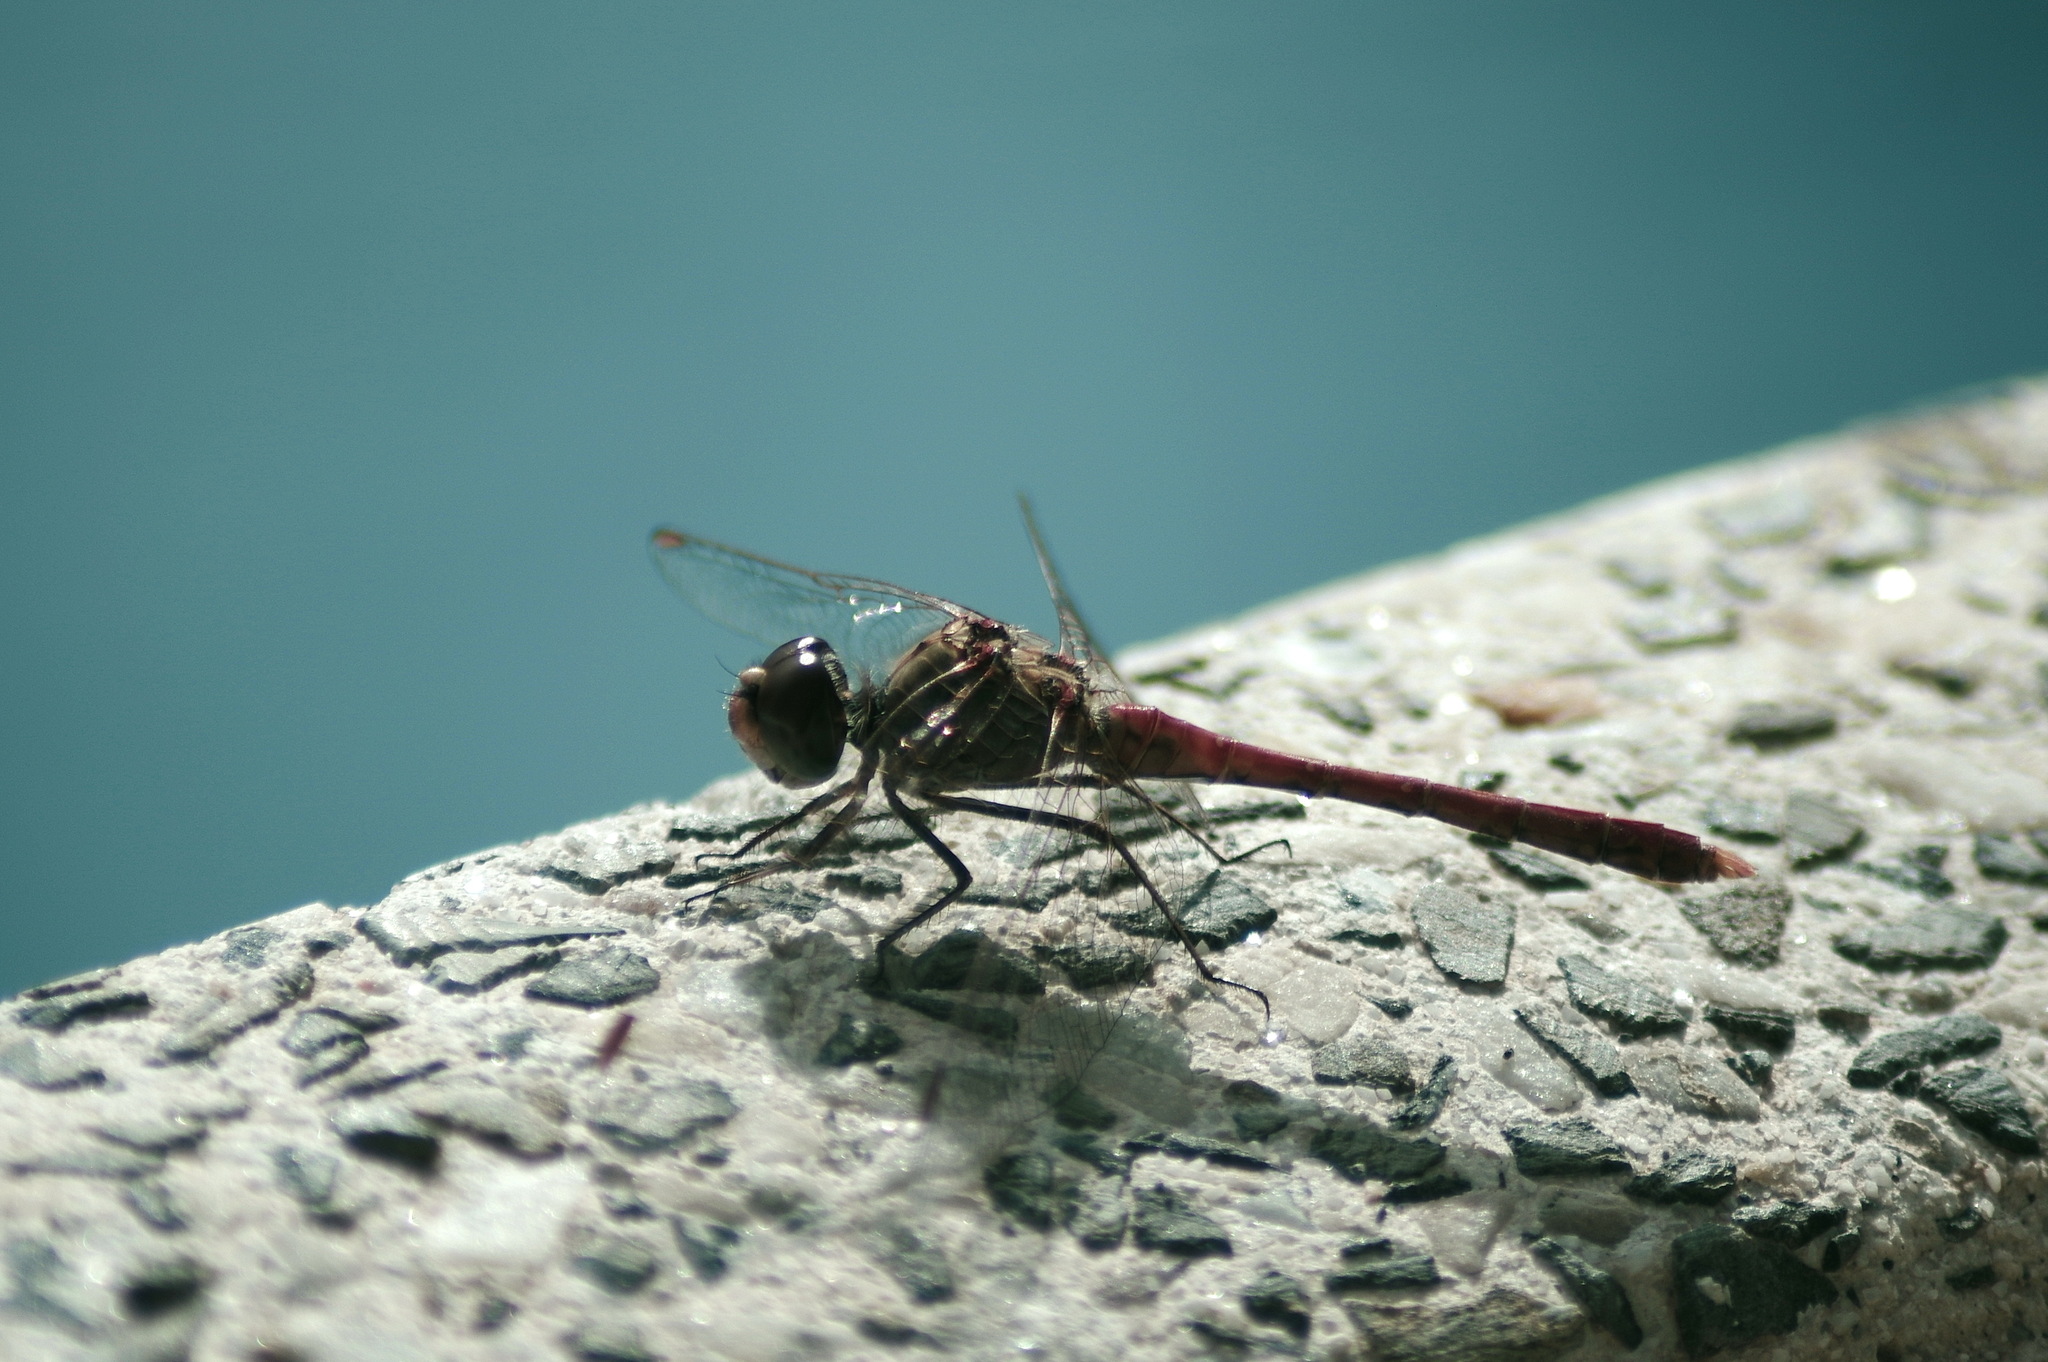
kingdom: Animalia
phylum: Arthropoda
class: Insecta
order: Odonata
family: Libellulidae
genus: Sympetrum
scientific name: Sympetrum sinaiticum
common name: Desert darter
